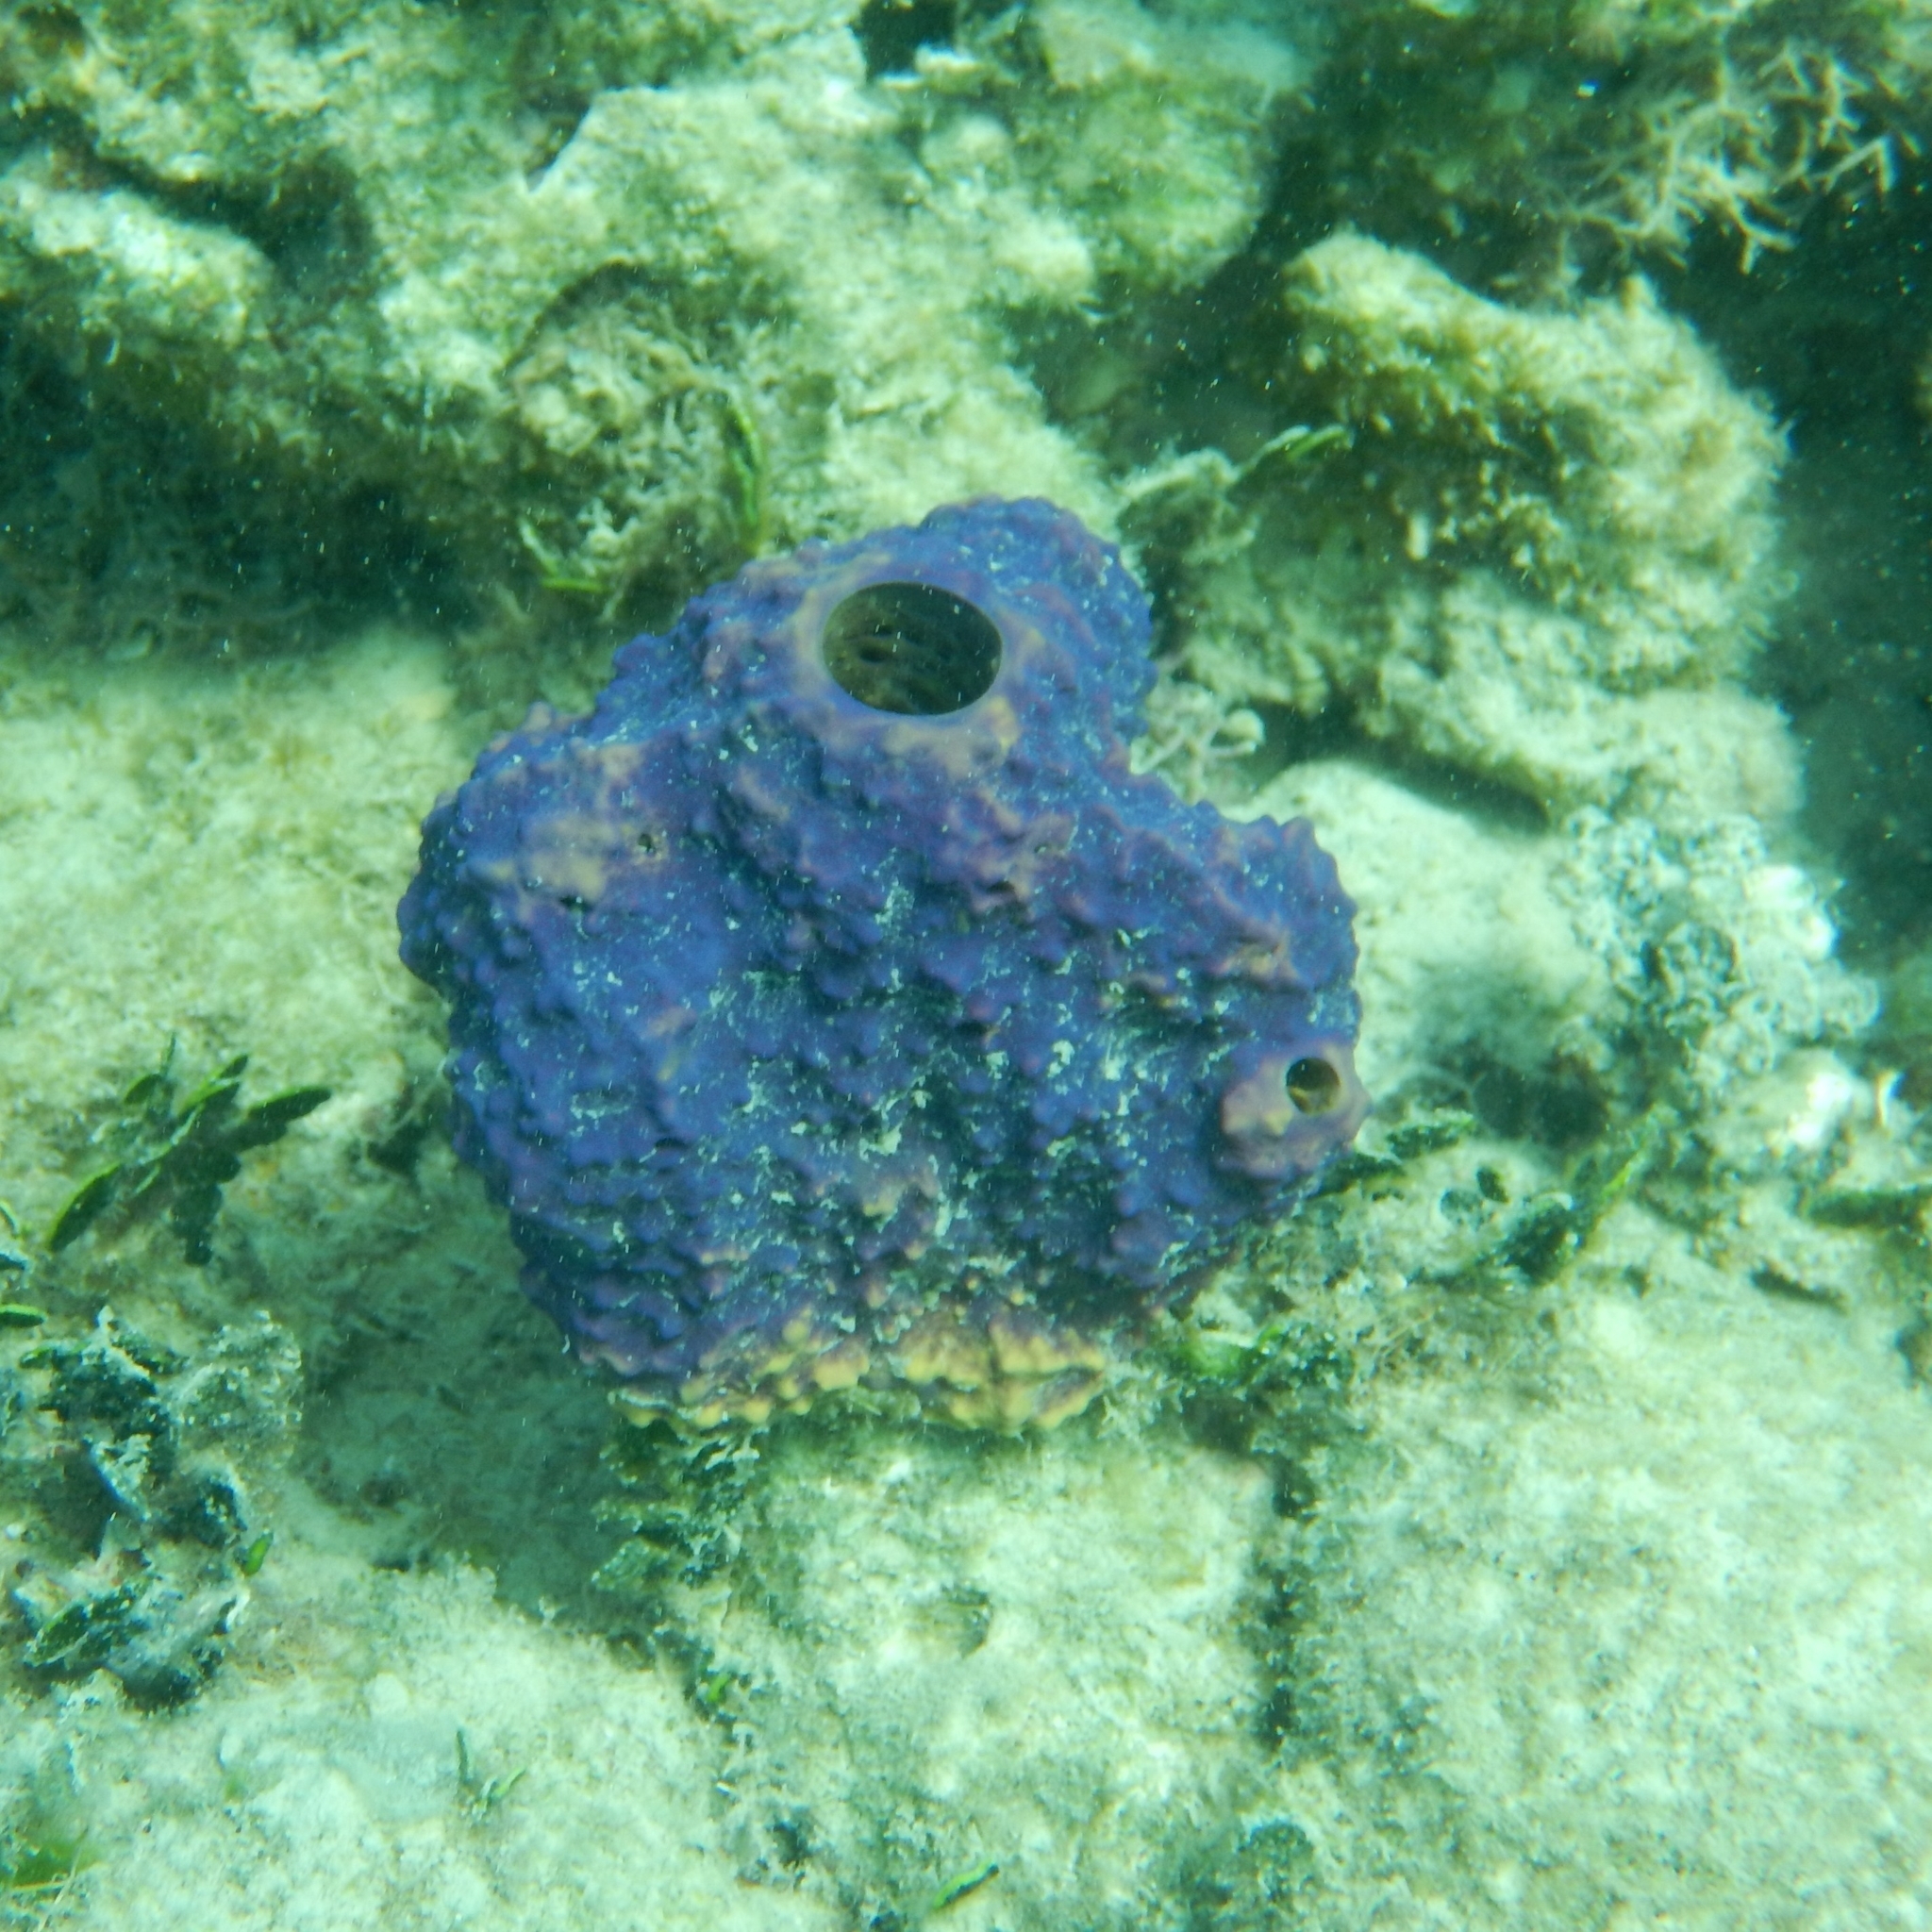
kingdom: Animalia
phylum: Porifera
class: Demospongiae
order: Verongiida
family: Aplysinidae
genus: Aiolochroia
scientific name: Aiolochroia crassa
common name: Branching tube sponge
